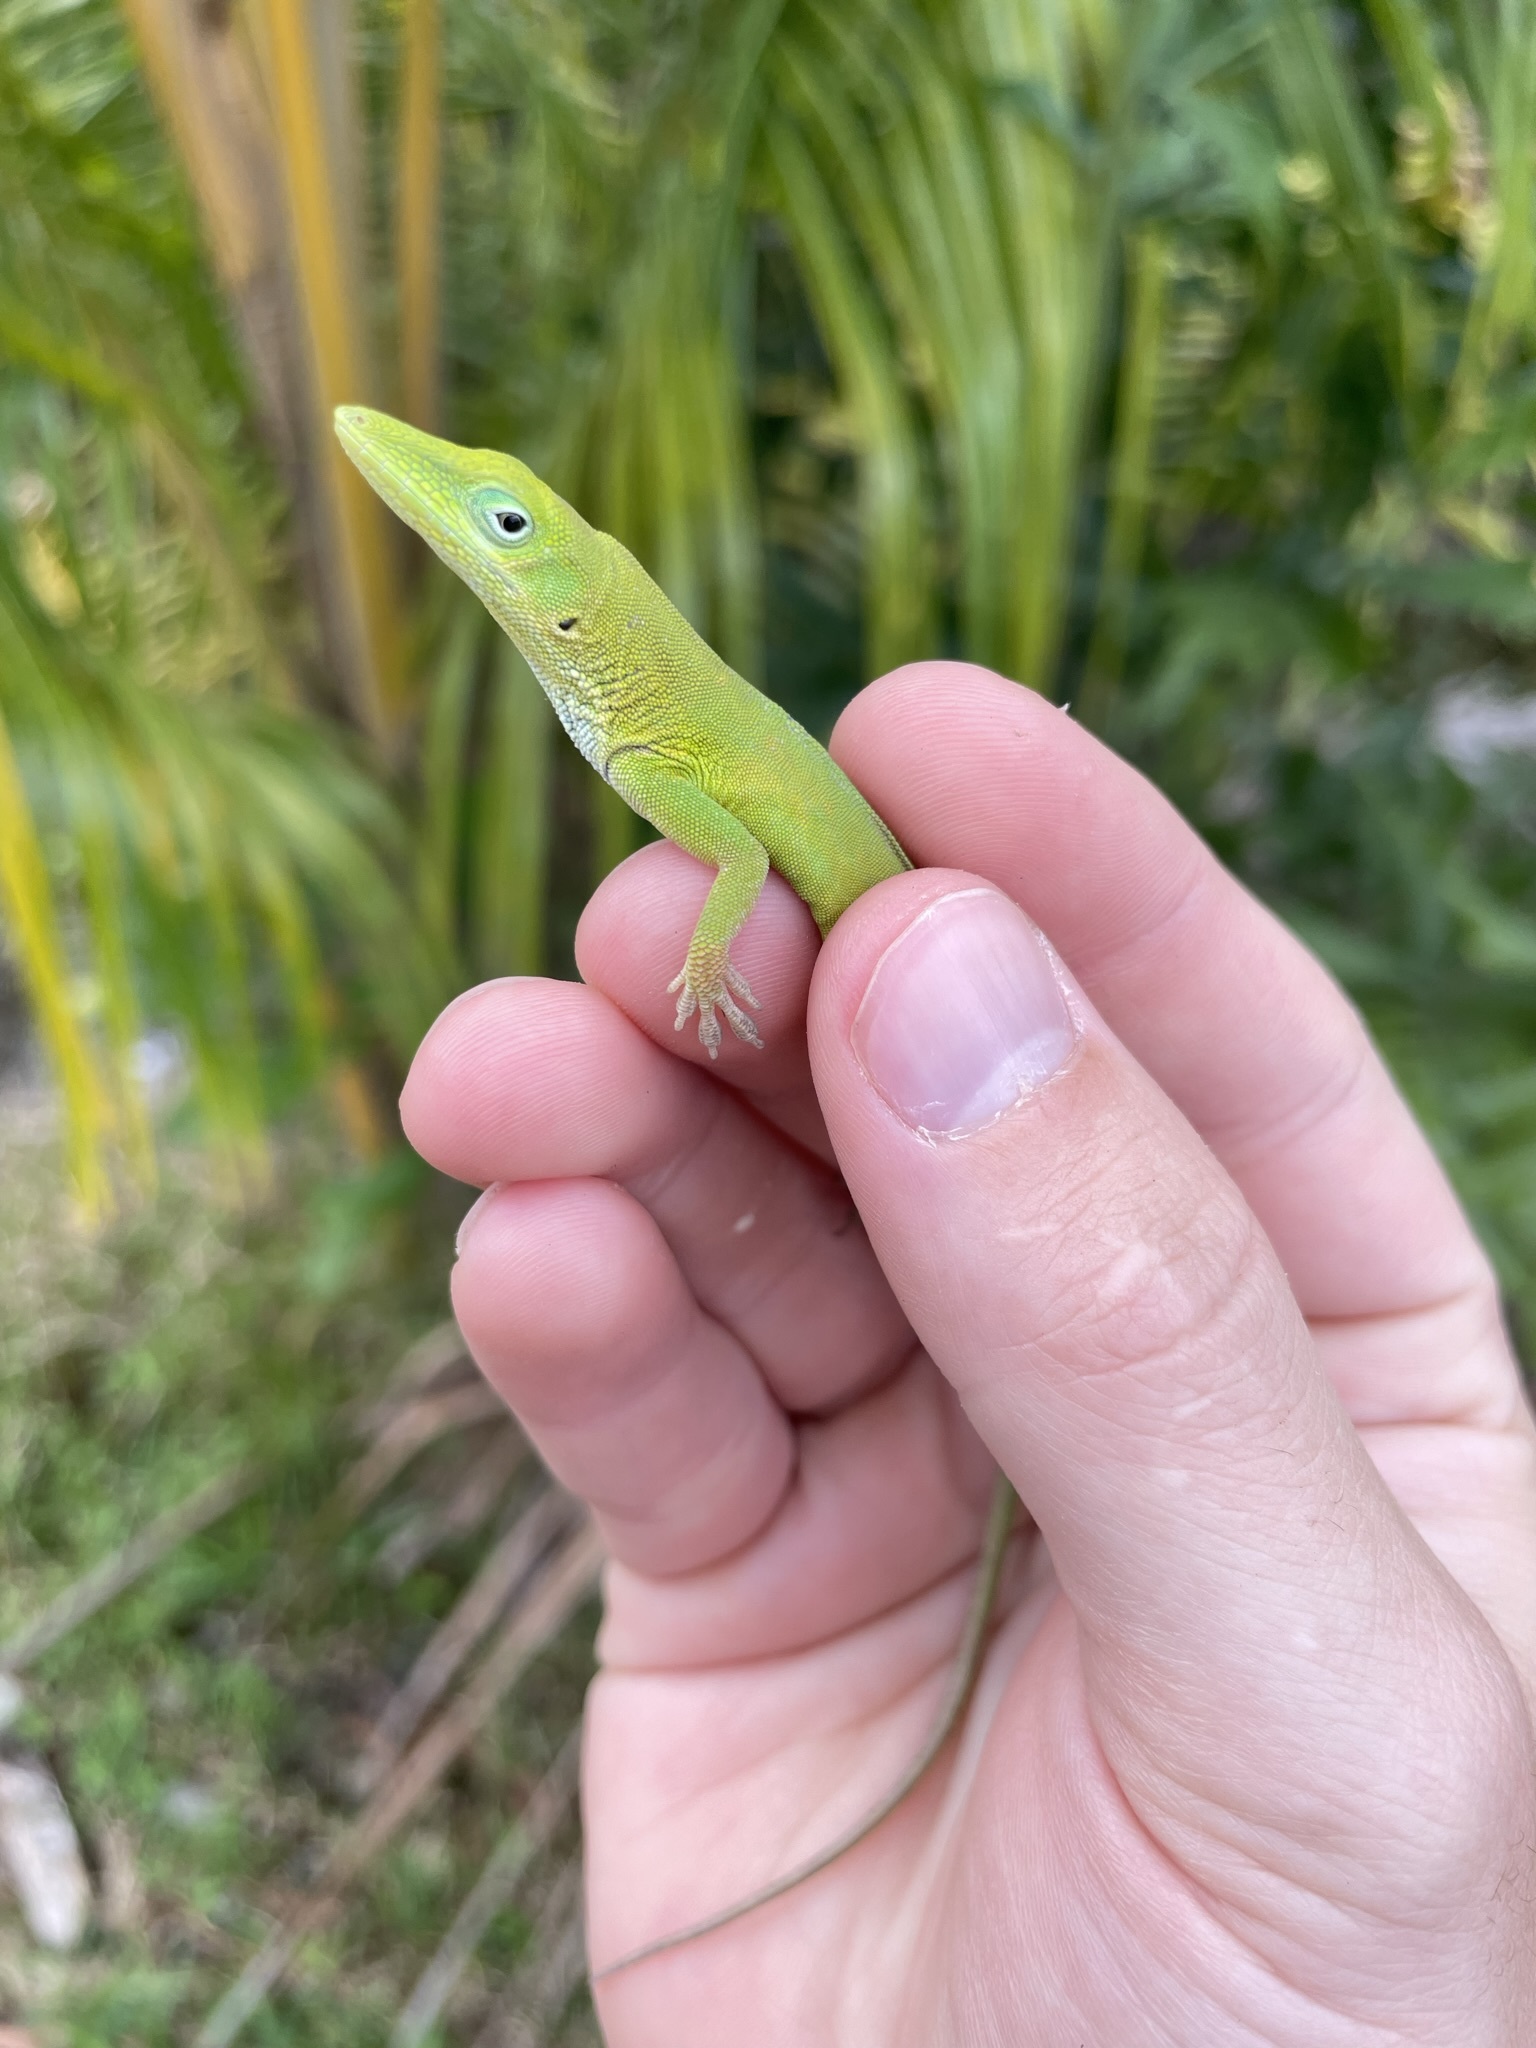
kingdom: Animalia
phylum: Chordata
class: Squamata
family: Dactyloidae
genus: Anolis
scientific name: Anolis chlorocyanus
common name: Hispaniolan green anole
